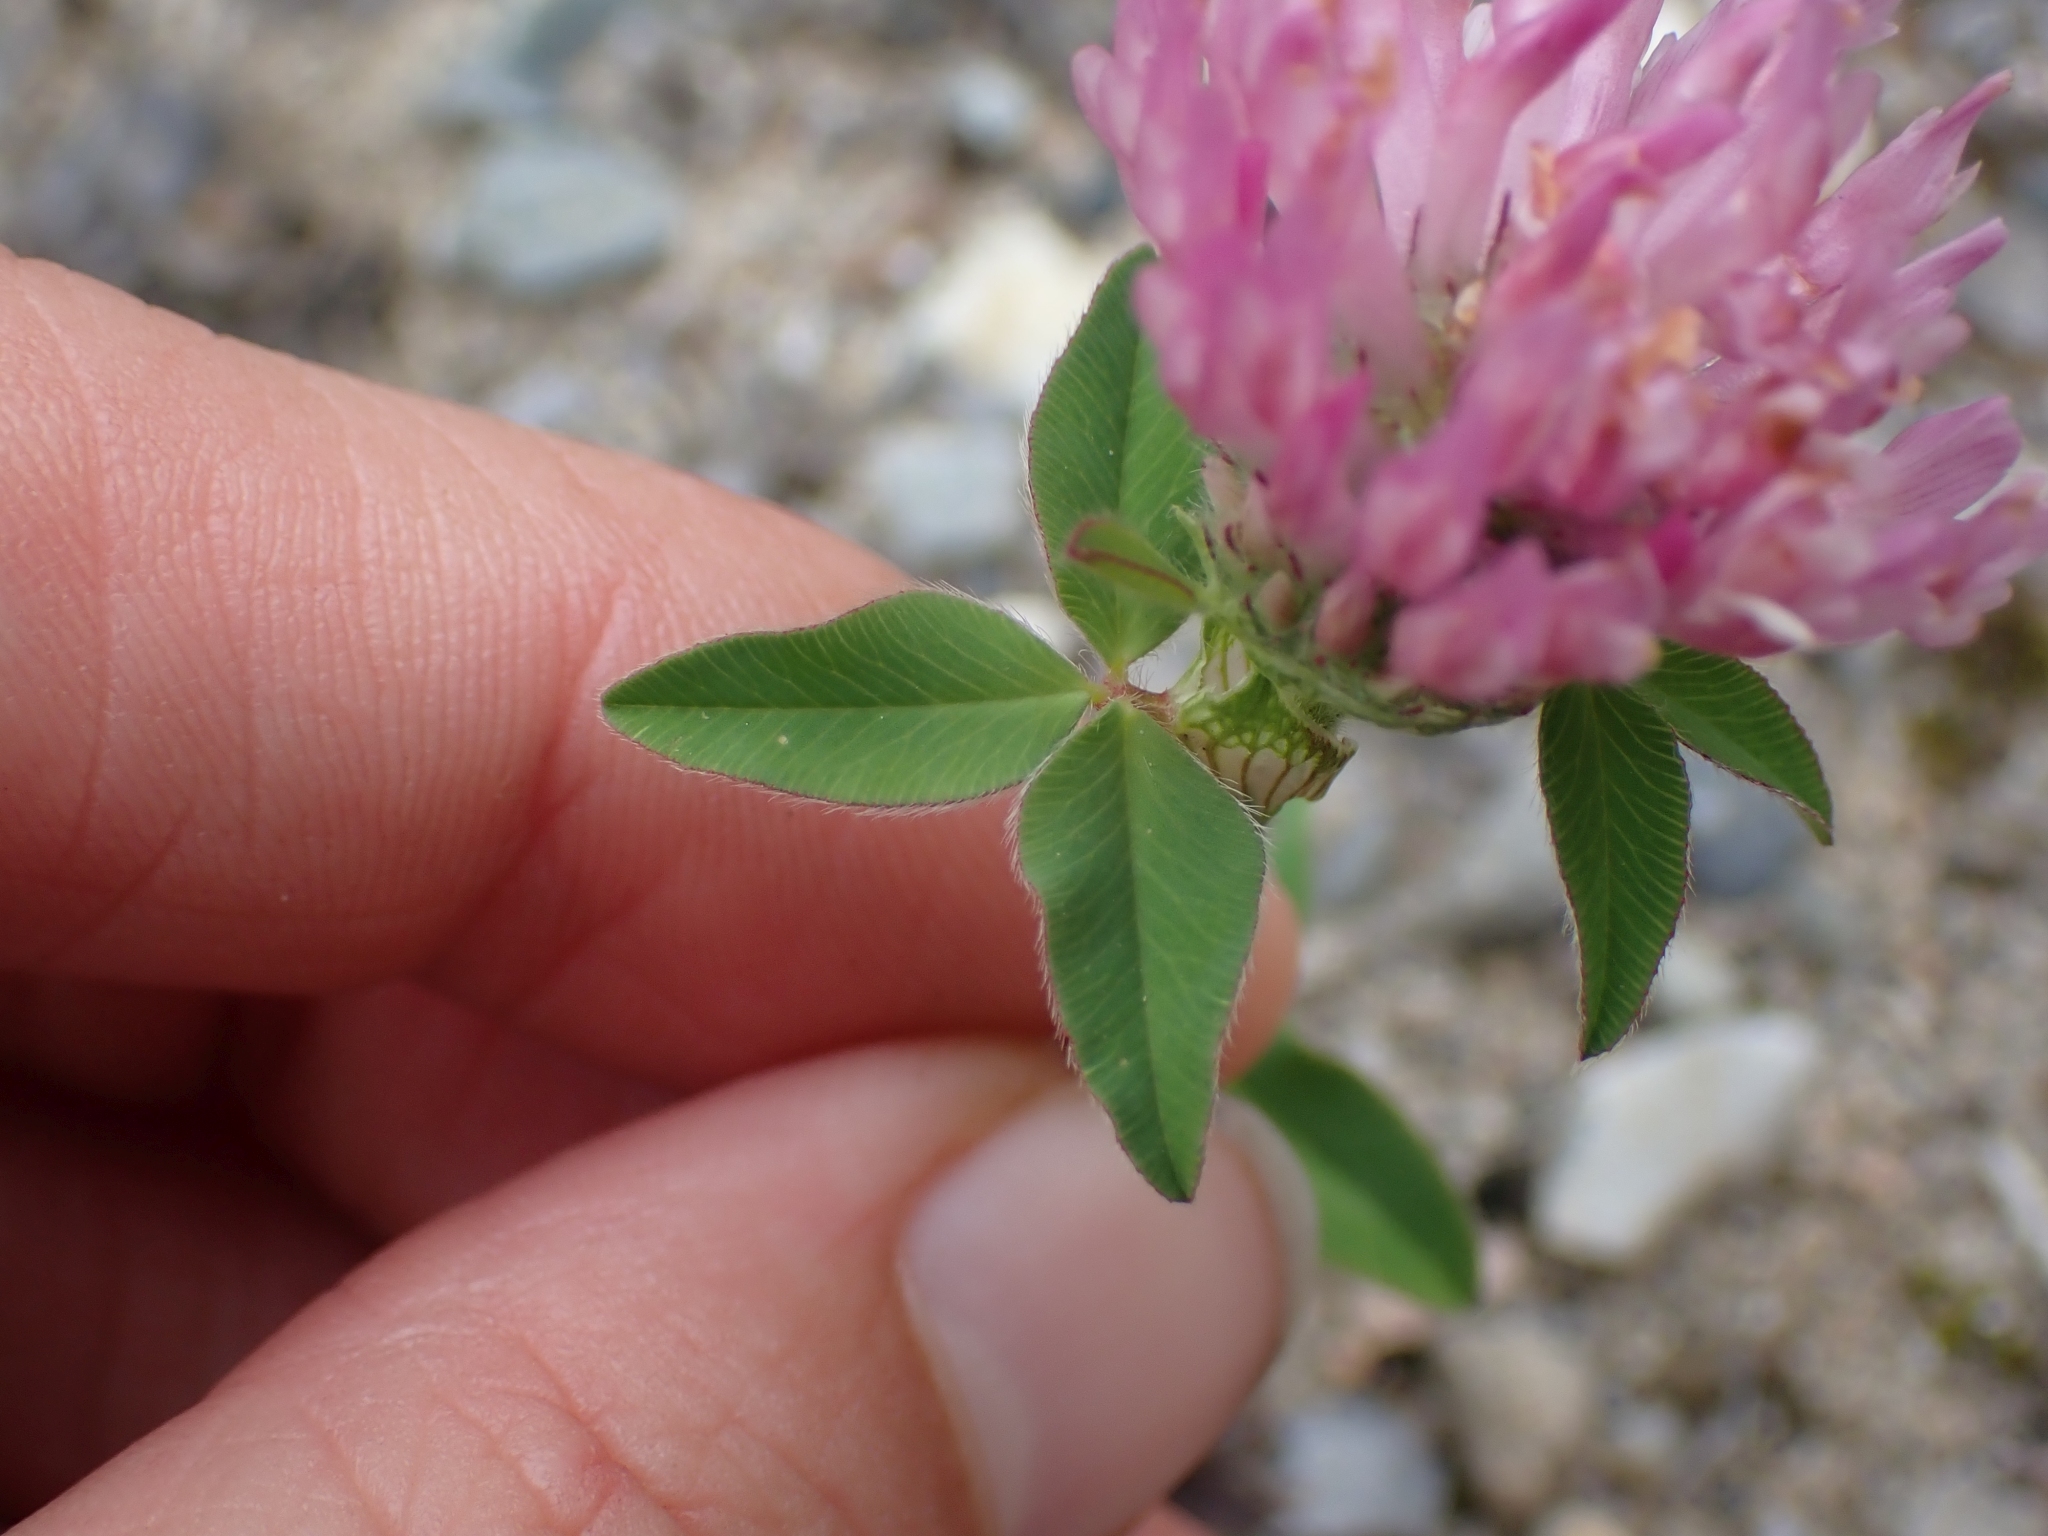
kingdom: Plantae
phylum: Tracheophyta
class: Magnoliopsida
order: Fabales
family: Fabaceae
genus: Trifolium
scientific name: Trifolium pratense
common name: Red clover
